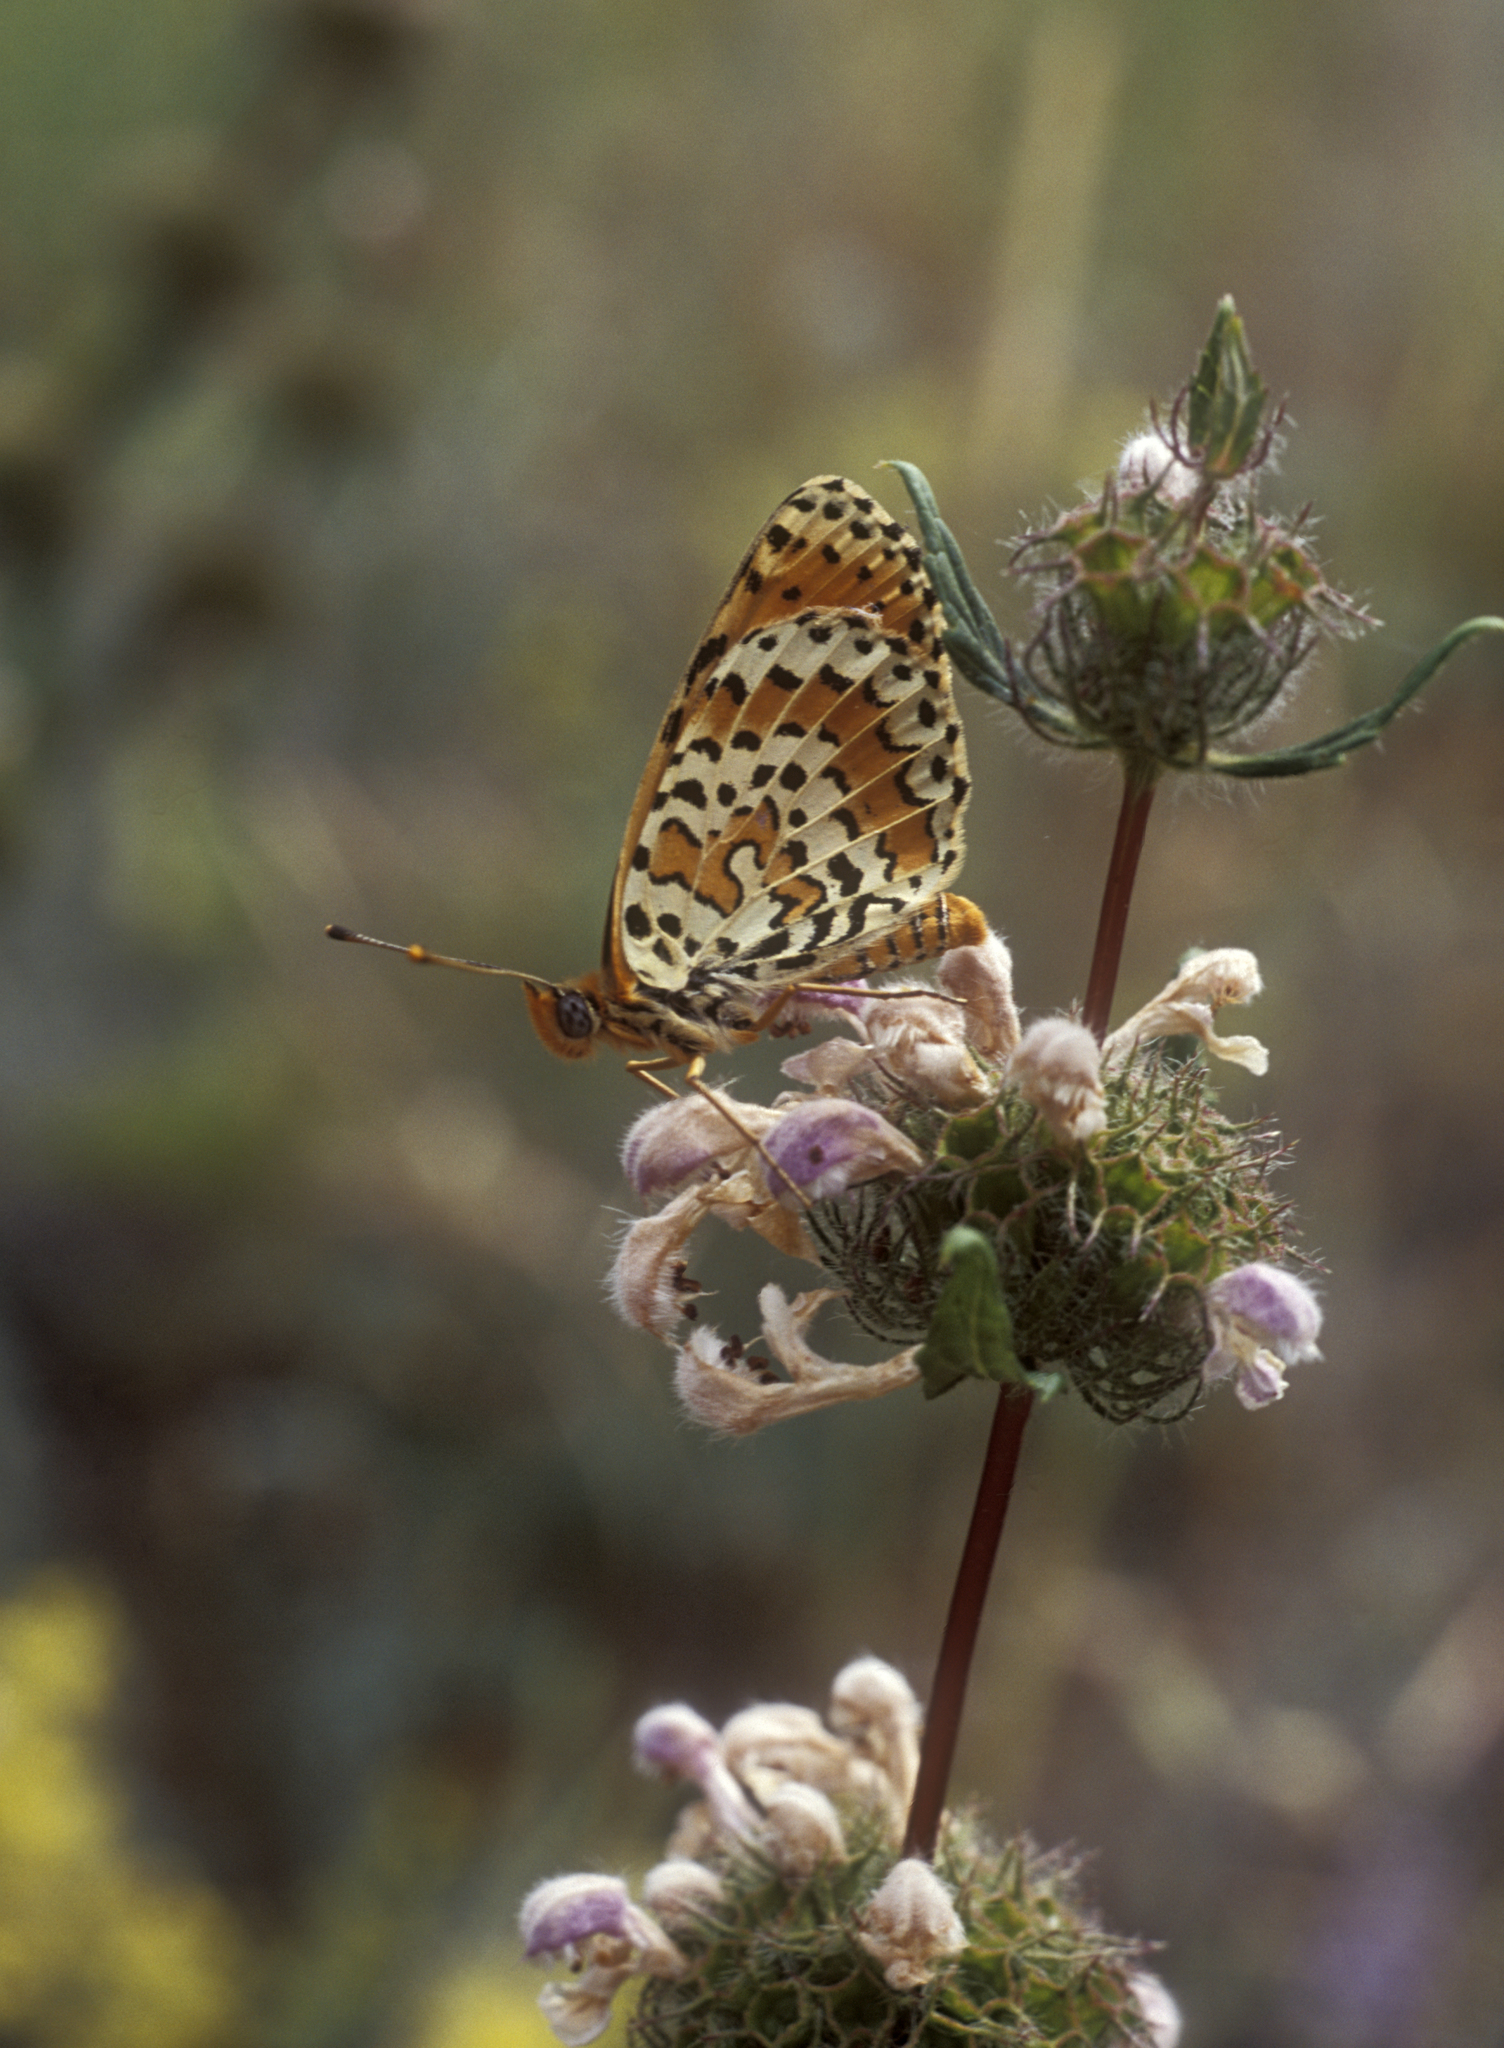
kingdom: Plantae
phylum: Tracheophyta
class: Magnoliopsida
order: Lamiales
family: Lamiaceae
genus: Phlomoides
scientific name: Phlomoides tuberosa
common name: Tuberous jerusalem sage
